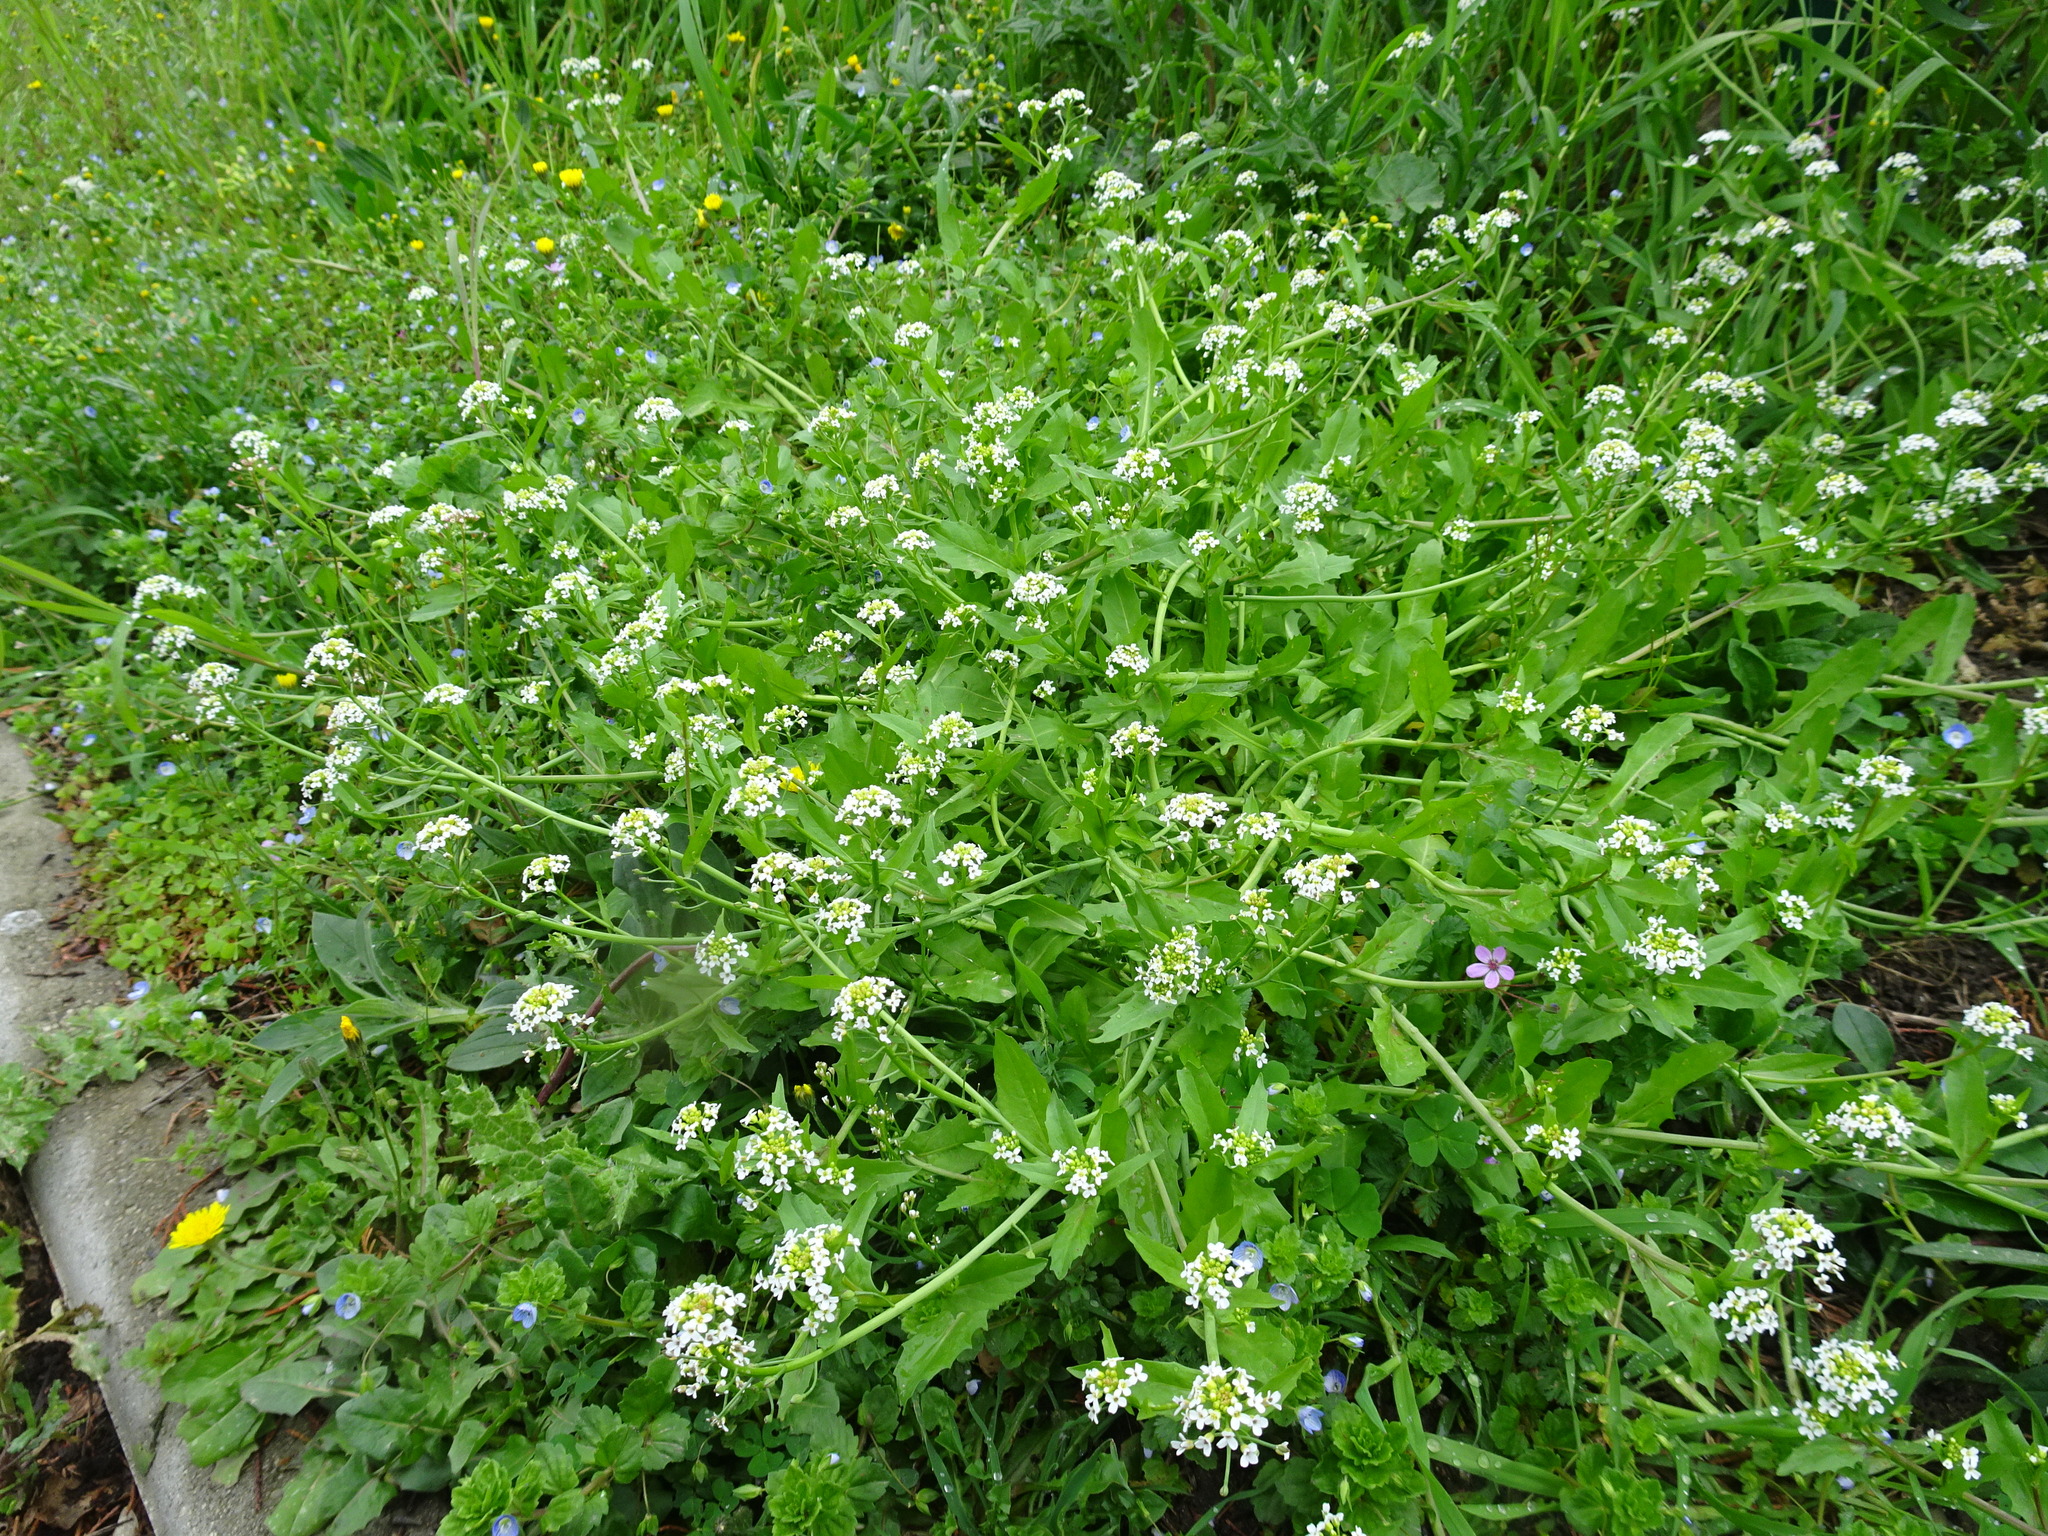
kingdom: Plantae
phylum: Tracheophyta
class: Magnoliopsida
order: Brassicales
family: Brassicaceae
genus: Calepina
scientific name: Calepina irregularis
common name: White ballmustard
